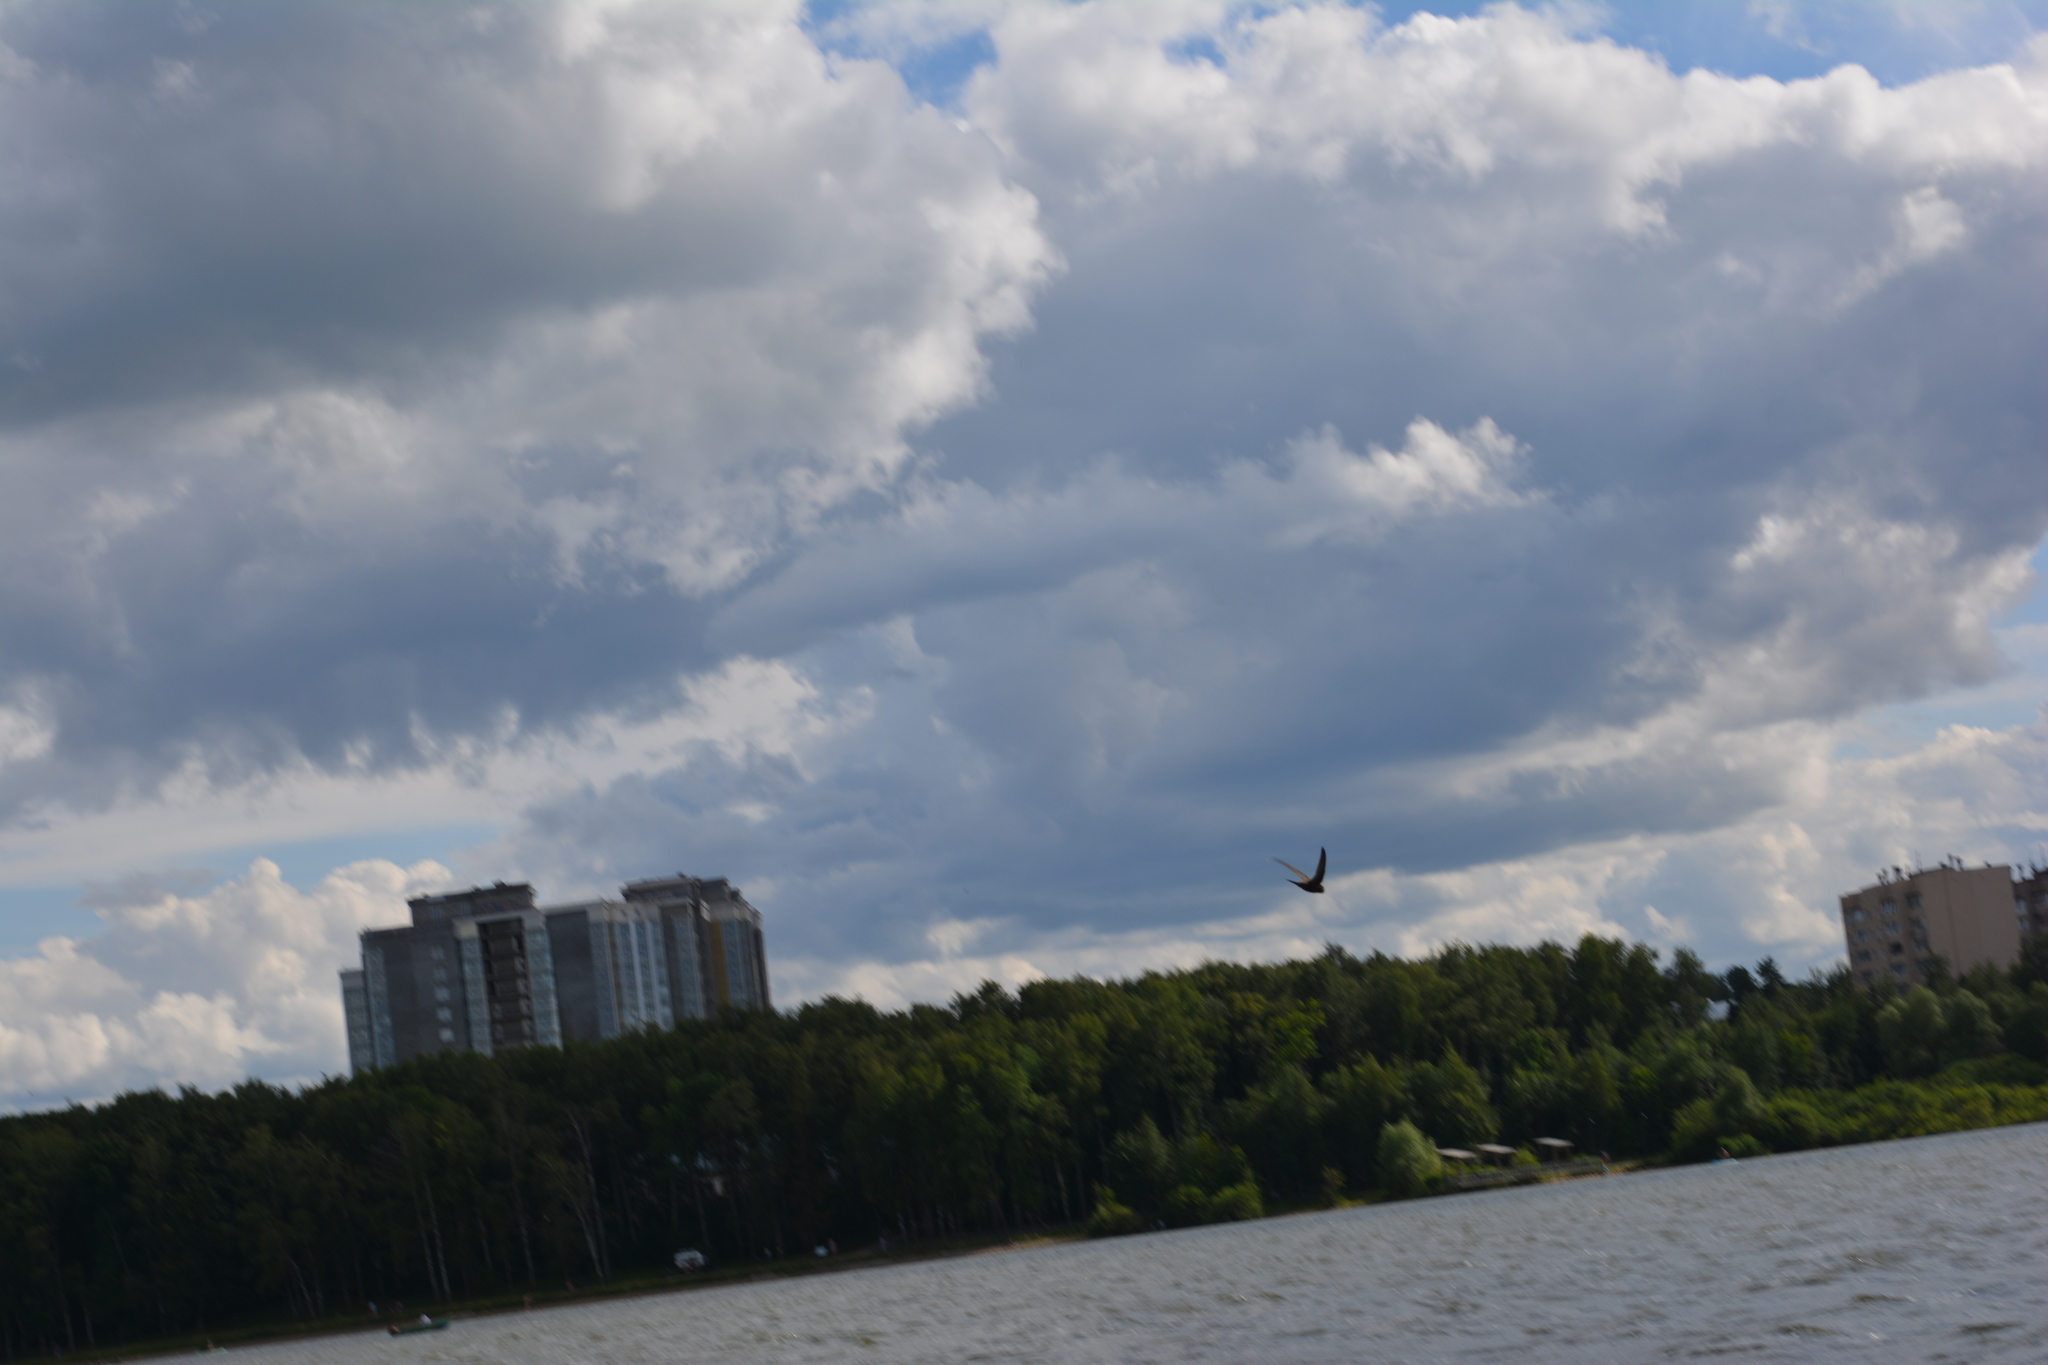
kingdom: Animalia
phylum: Chordata
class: Aves
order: Apodiformes
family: Apodidae
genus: Apus
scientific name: Apus apus
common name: Common swift
